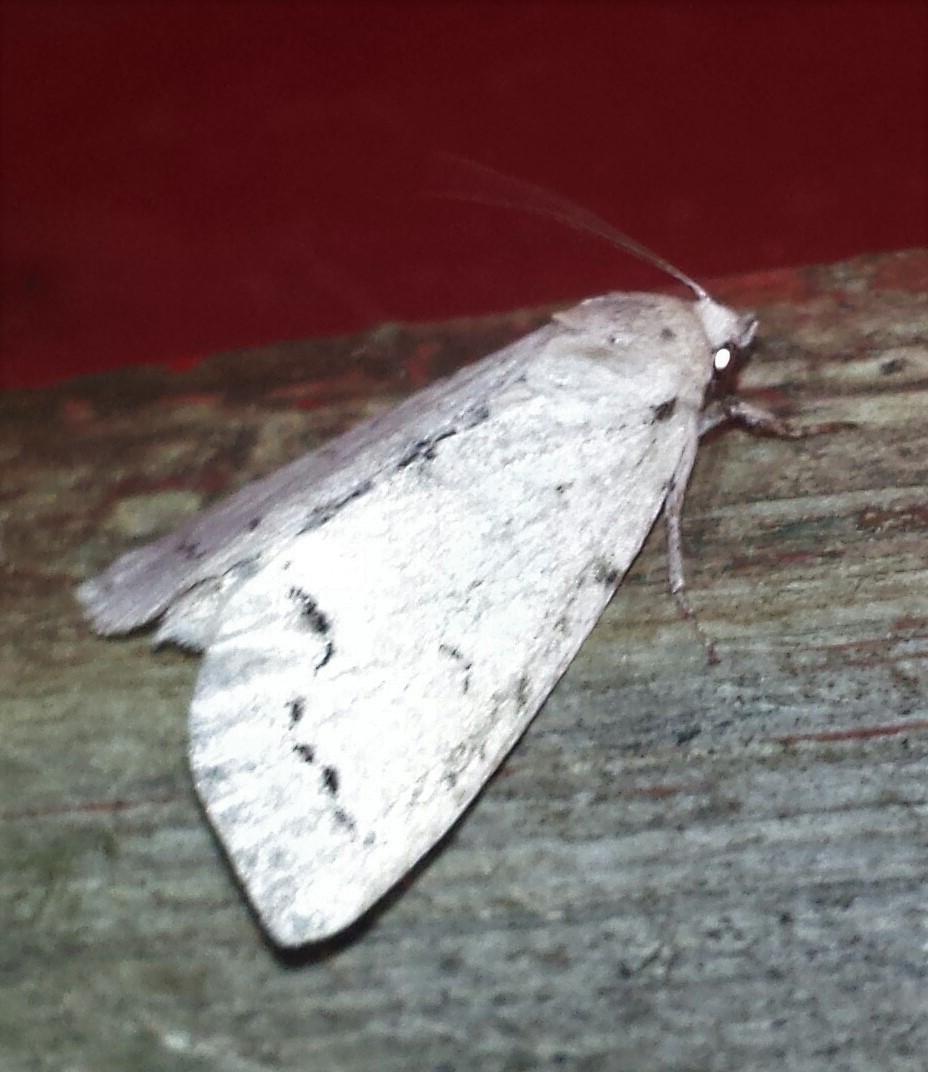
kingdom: Animalia
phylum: Arthropoda
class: Insecta
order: Lepidoptera
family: Noctuidae
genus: Acronicta
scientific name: Acronicta innotata
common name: Unmarked dagger
